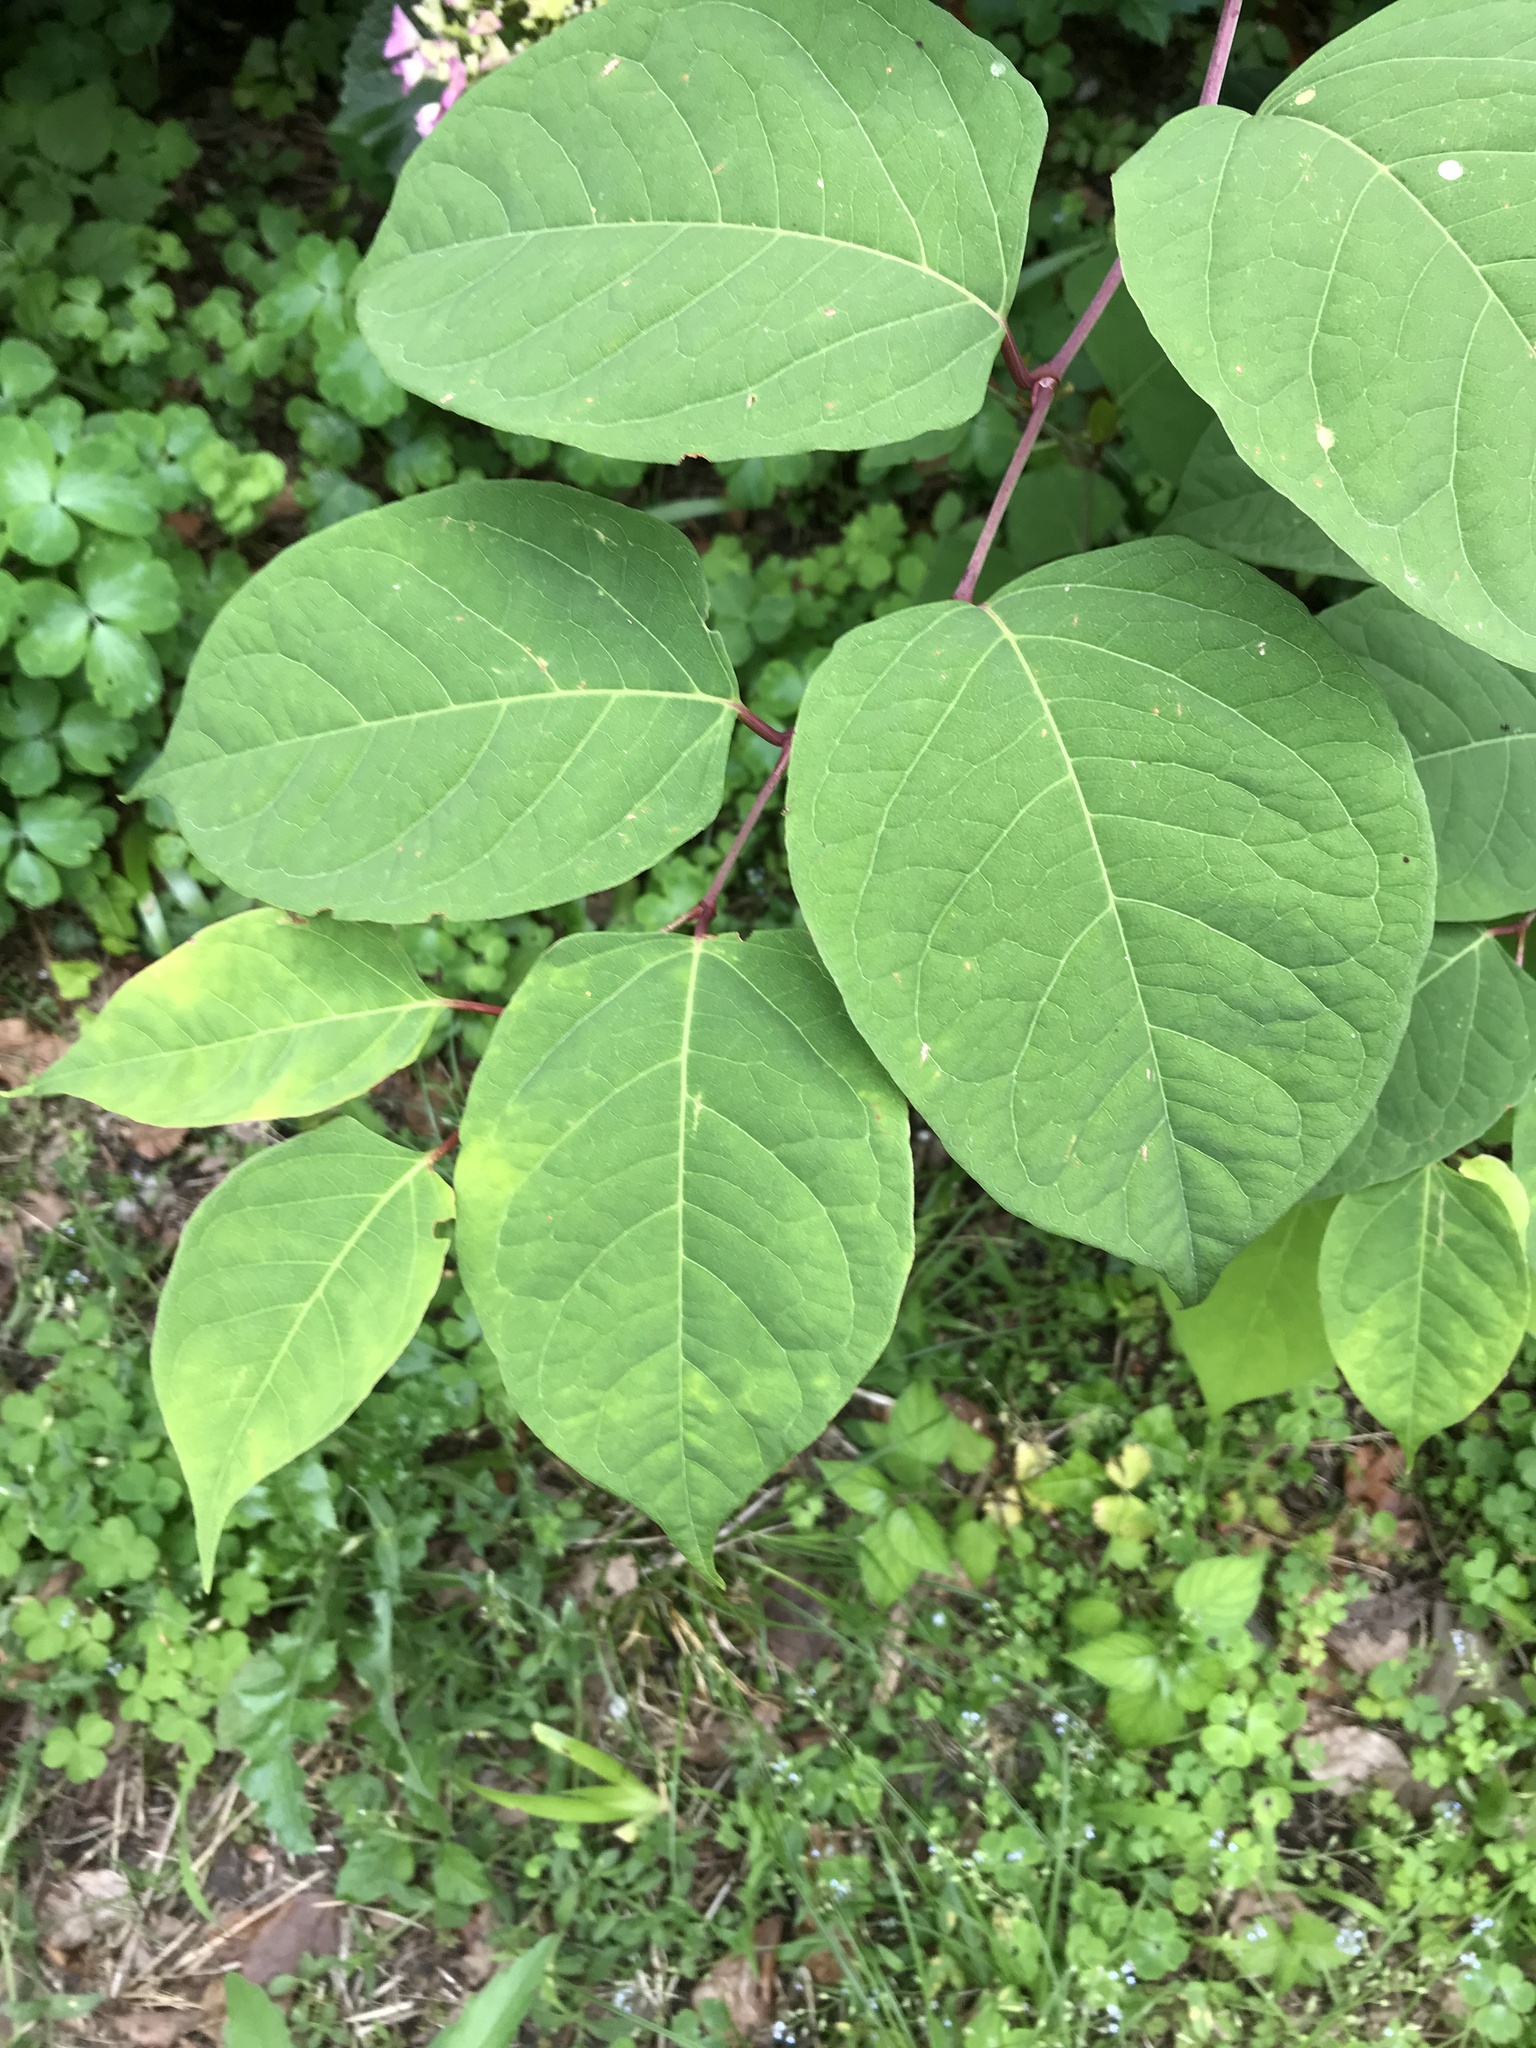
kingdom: Plantae
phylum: Tracheophyta
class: Magnoliopsida
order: Caryophyllales
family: Polygonaceae
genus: Reynoutria
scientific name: Reynoutria japonica
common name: Japanese knotweed
